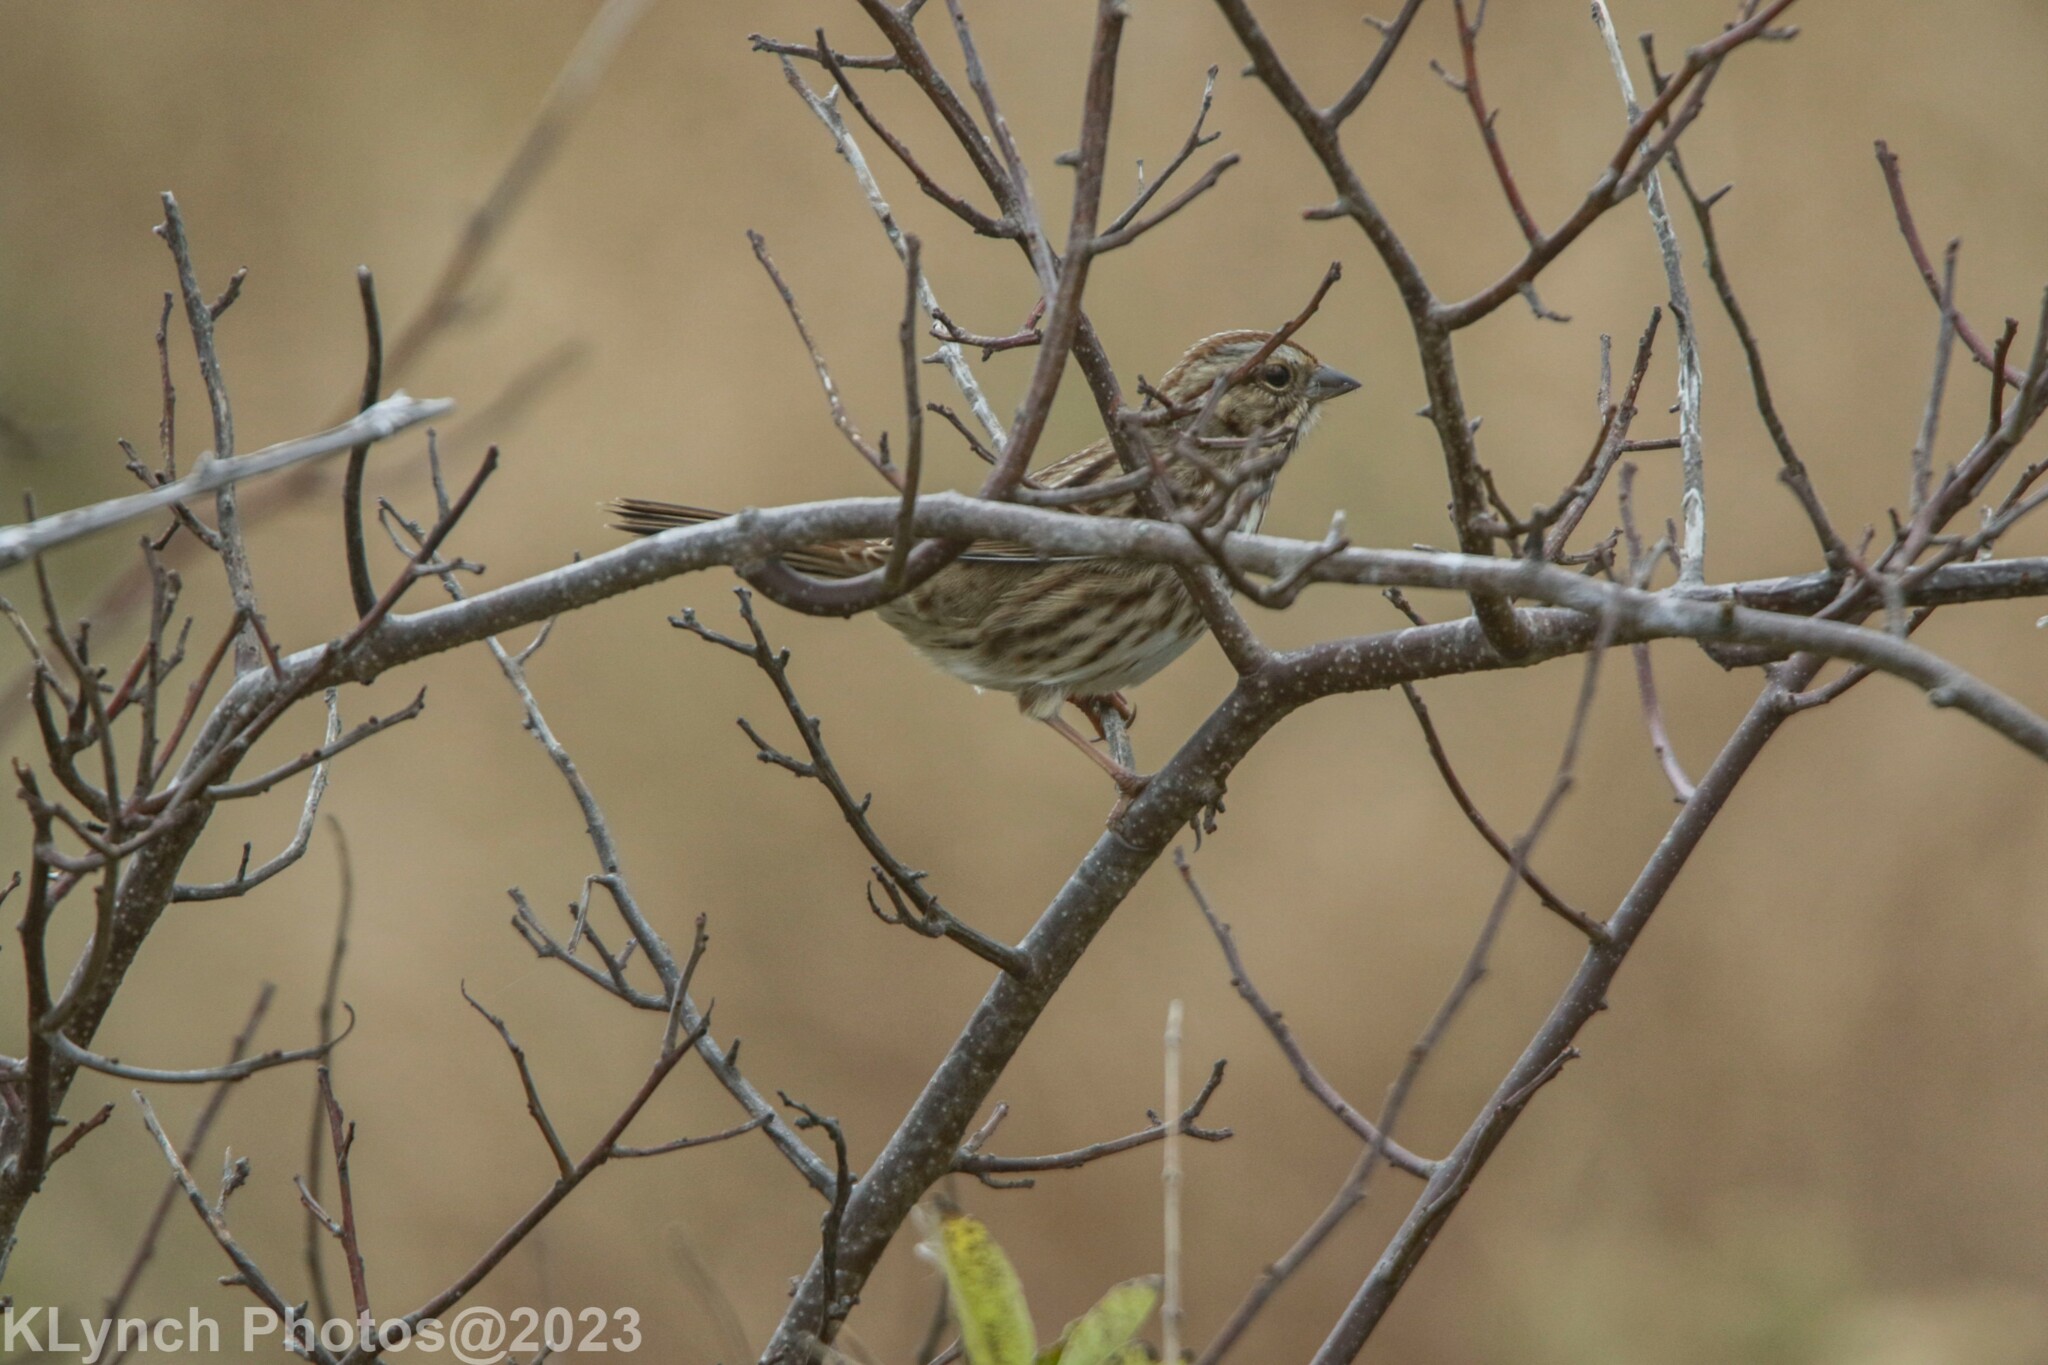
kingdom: Animalia
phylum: Chordata
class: Aves
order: Passeriformes
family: Passerellidae
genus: Melospiza
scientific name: Melospiza melodia
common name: Song sparrow
